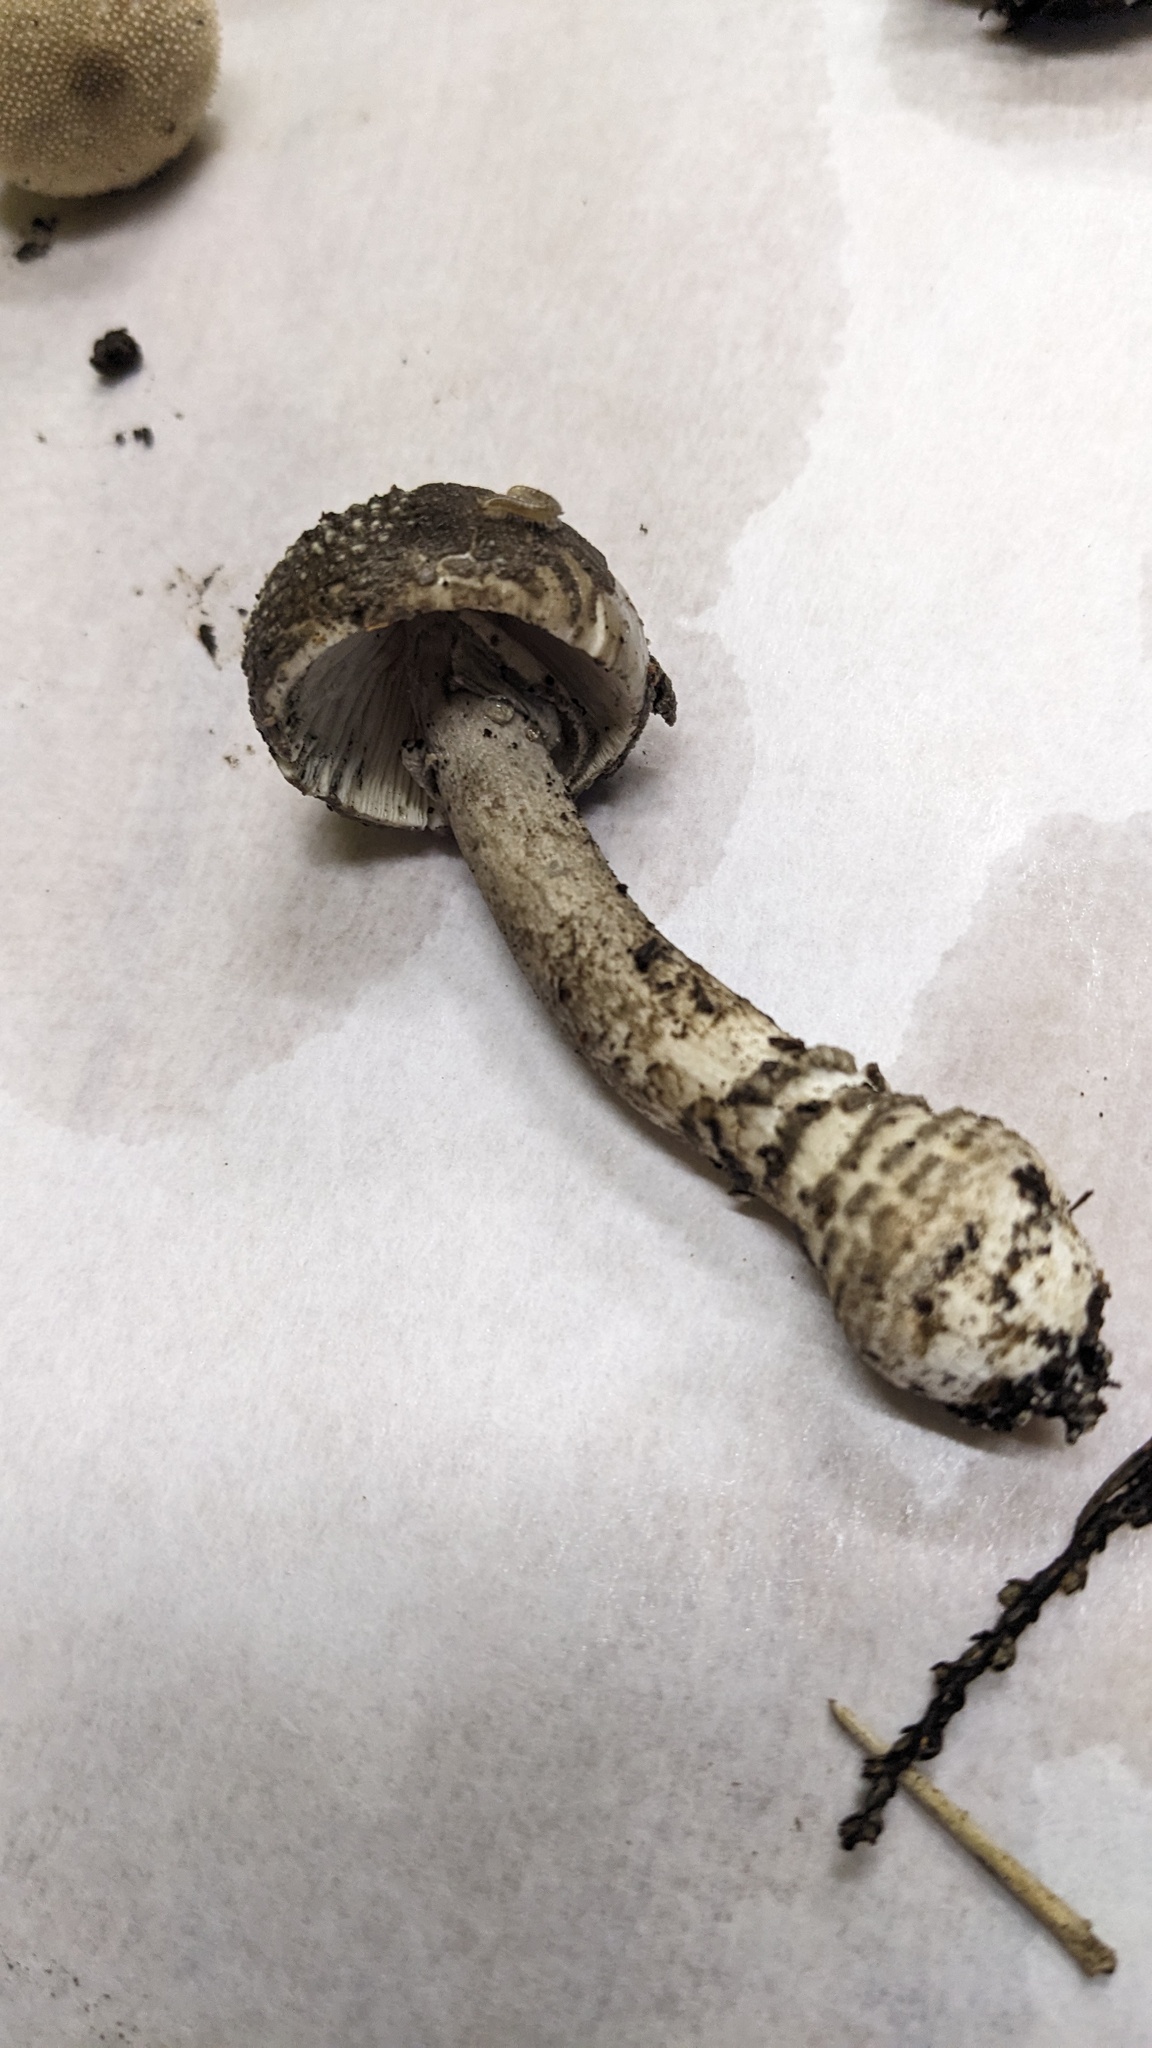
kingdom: Fungi
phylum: Basidiomycota
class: Agaricomycetes
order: Agaricales
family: Amanitaceae
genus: Amanita
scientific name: Amanita spissacea
